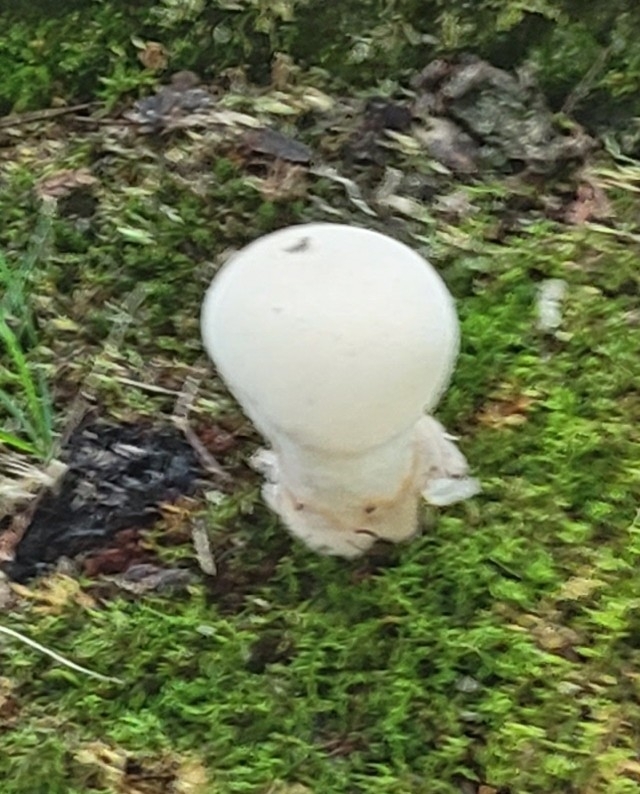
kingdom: Fungi
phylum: Basidiomycota
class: Agaricomycetes
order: Agaricales
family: Lycoperdaceae
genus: Lycoperdon
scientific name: Lycoperdon excipuliforme
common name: Pestle puffball
